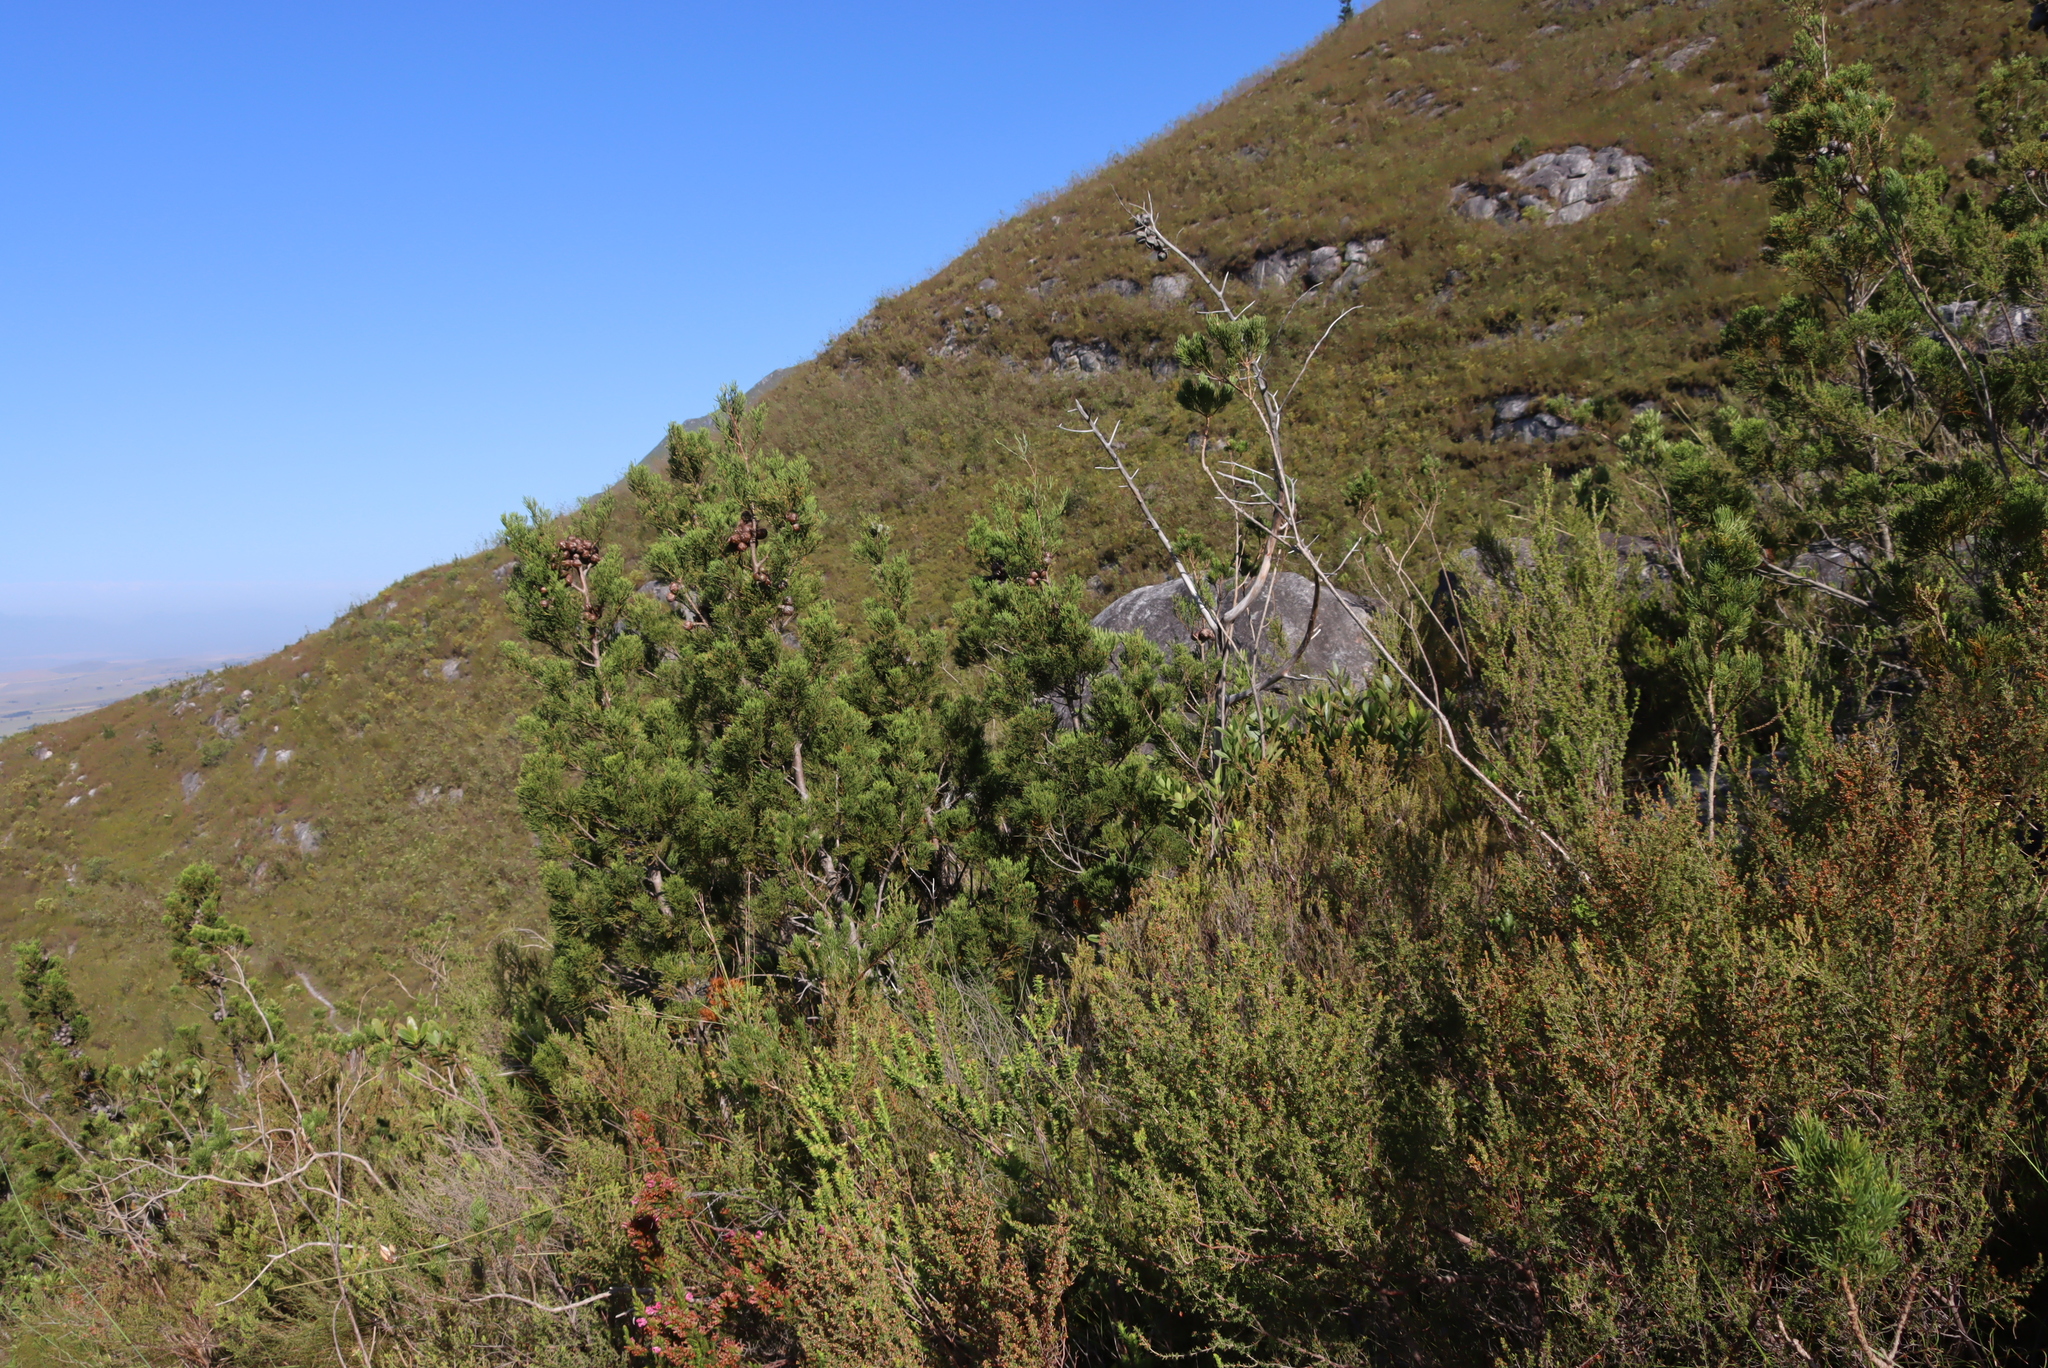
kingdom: Plantae
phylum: Tracheophyta
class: Pinopsida
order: Pinales
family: Cupressaceae
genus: Widdringtonia
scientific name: Widdringtonia nodiflora
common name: Cape cypress
